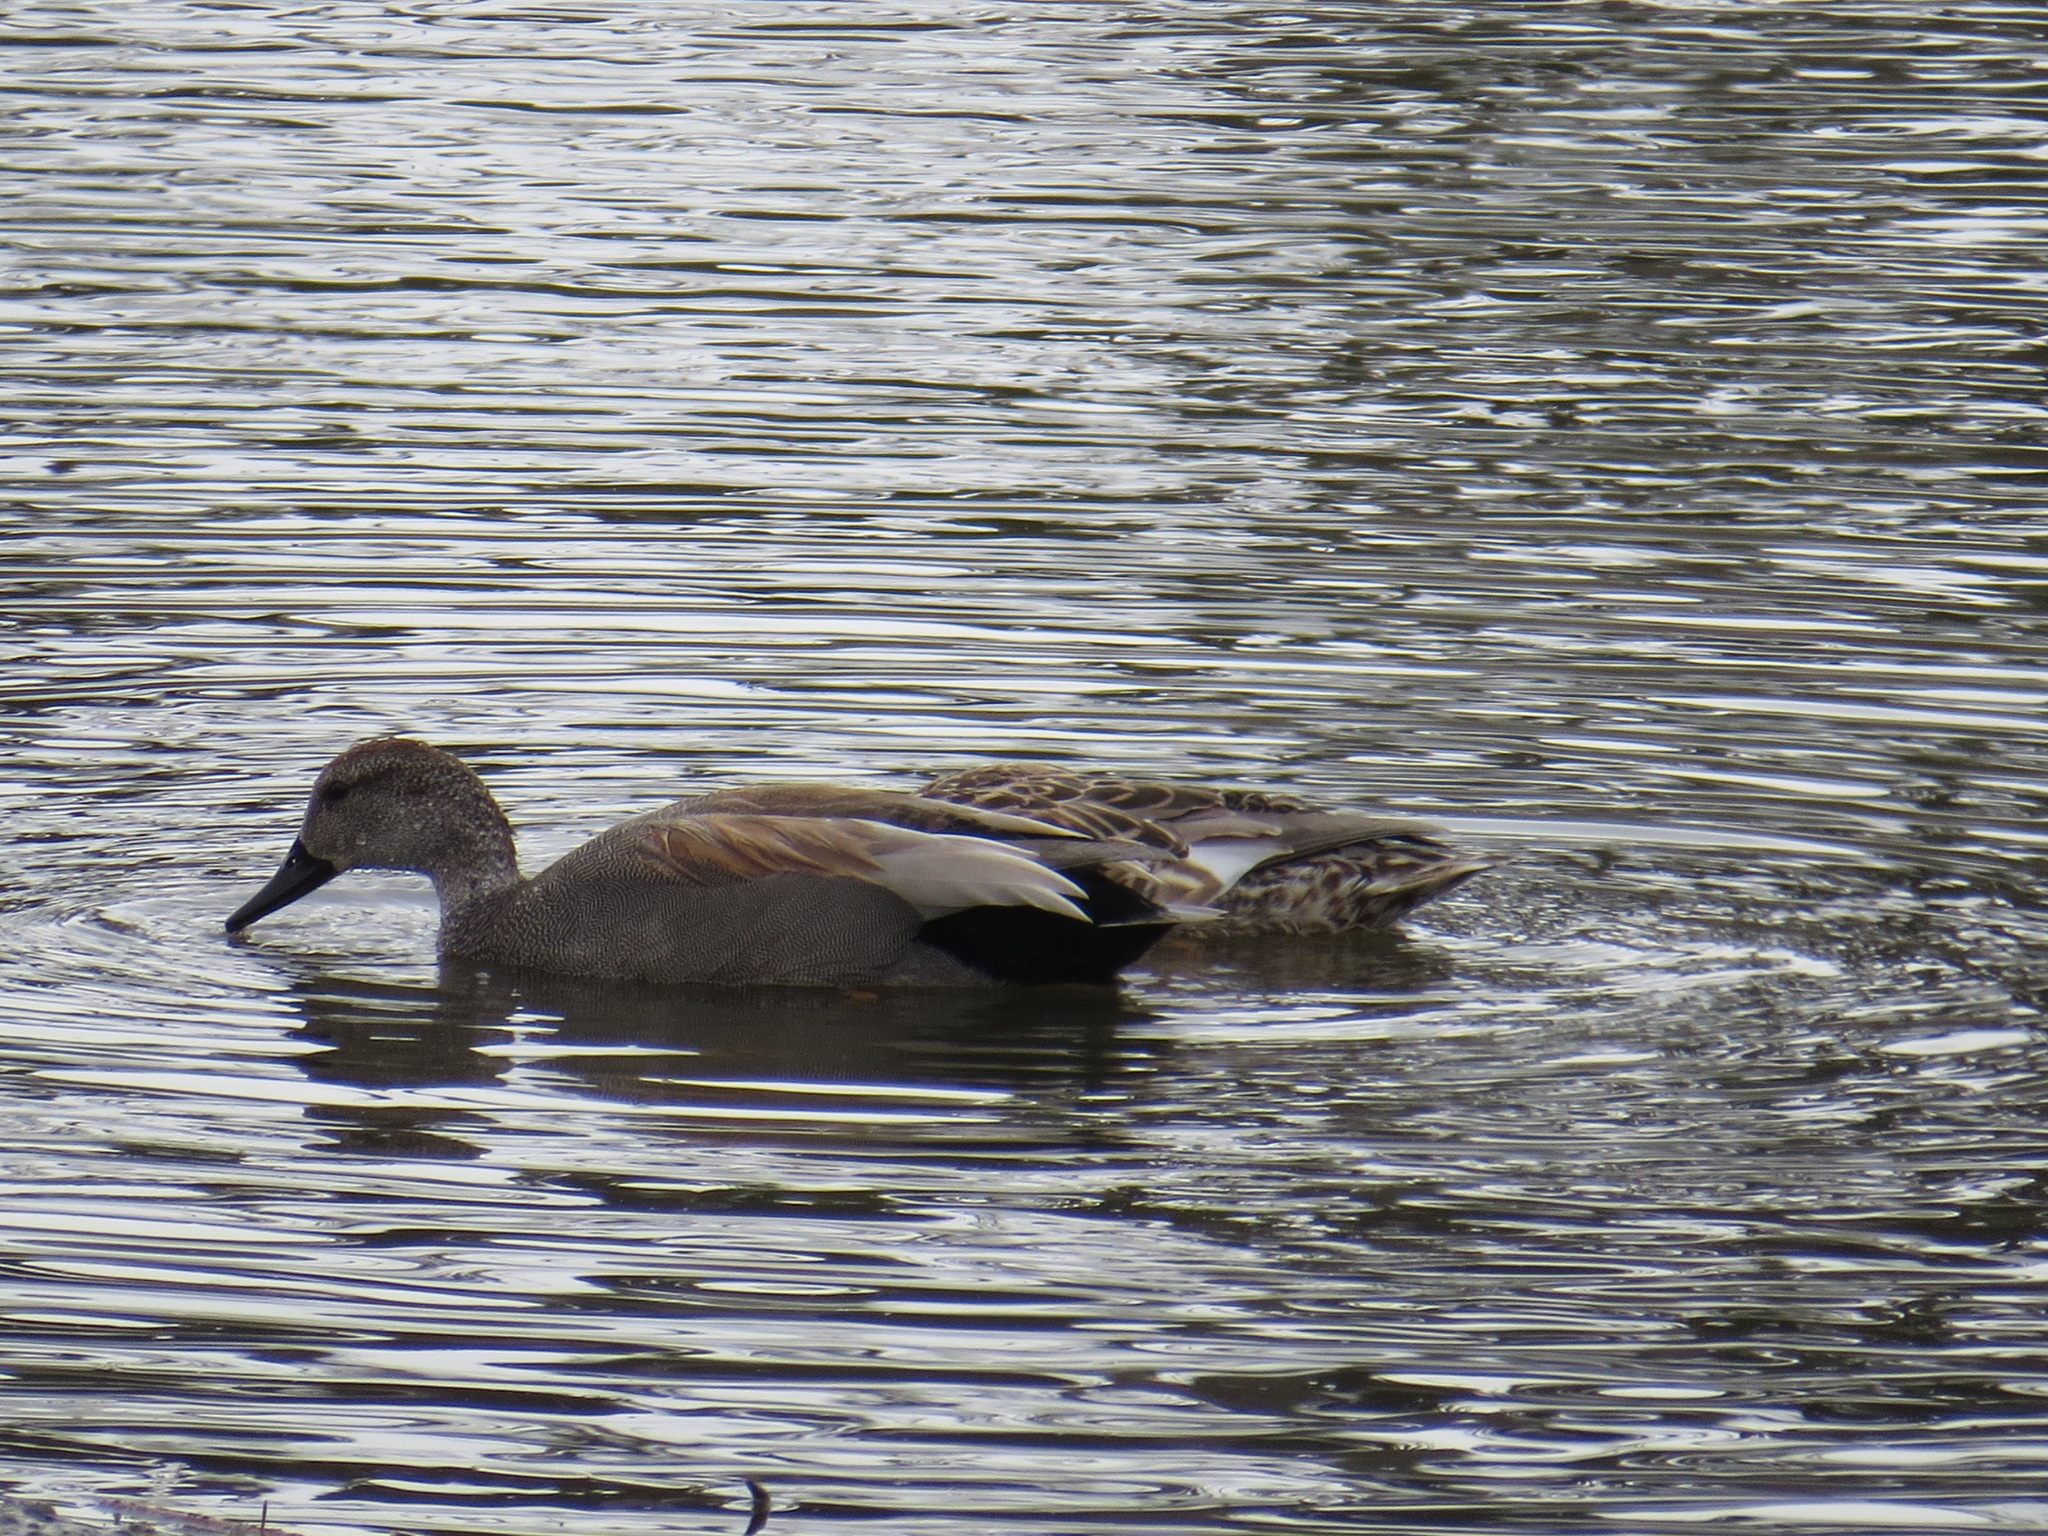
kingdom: Animalia
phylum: Chordata
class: Aves
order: Anseriformes
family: Anatidae
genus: Mareca
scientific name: Mareca strepera
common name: Gadwall
